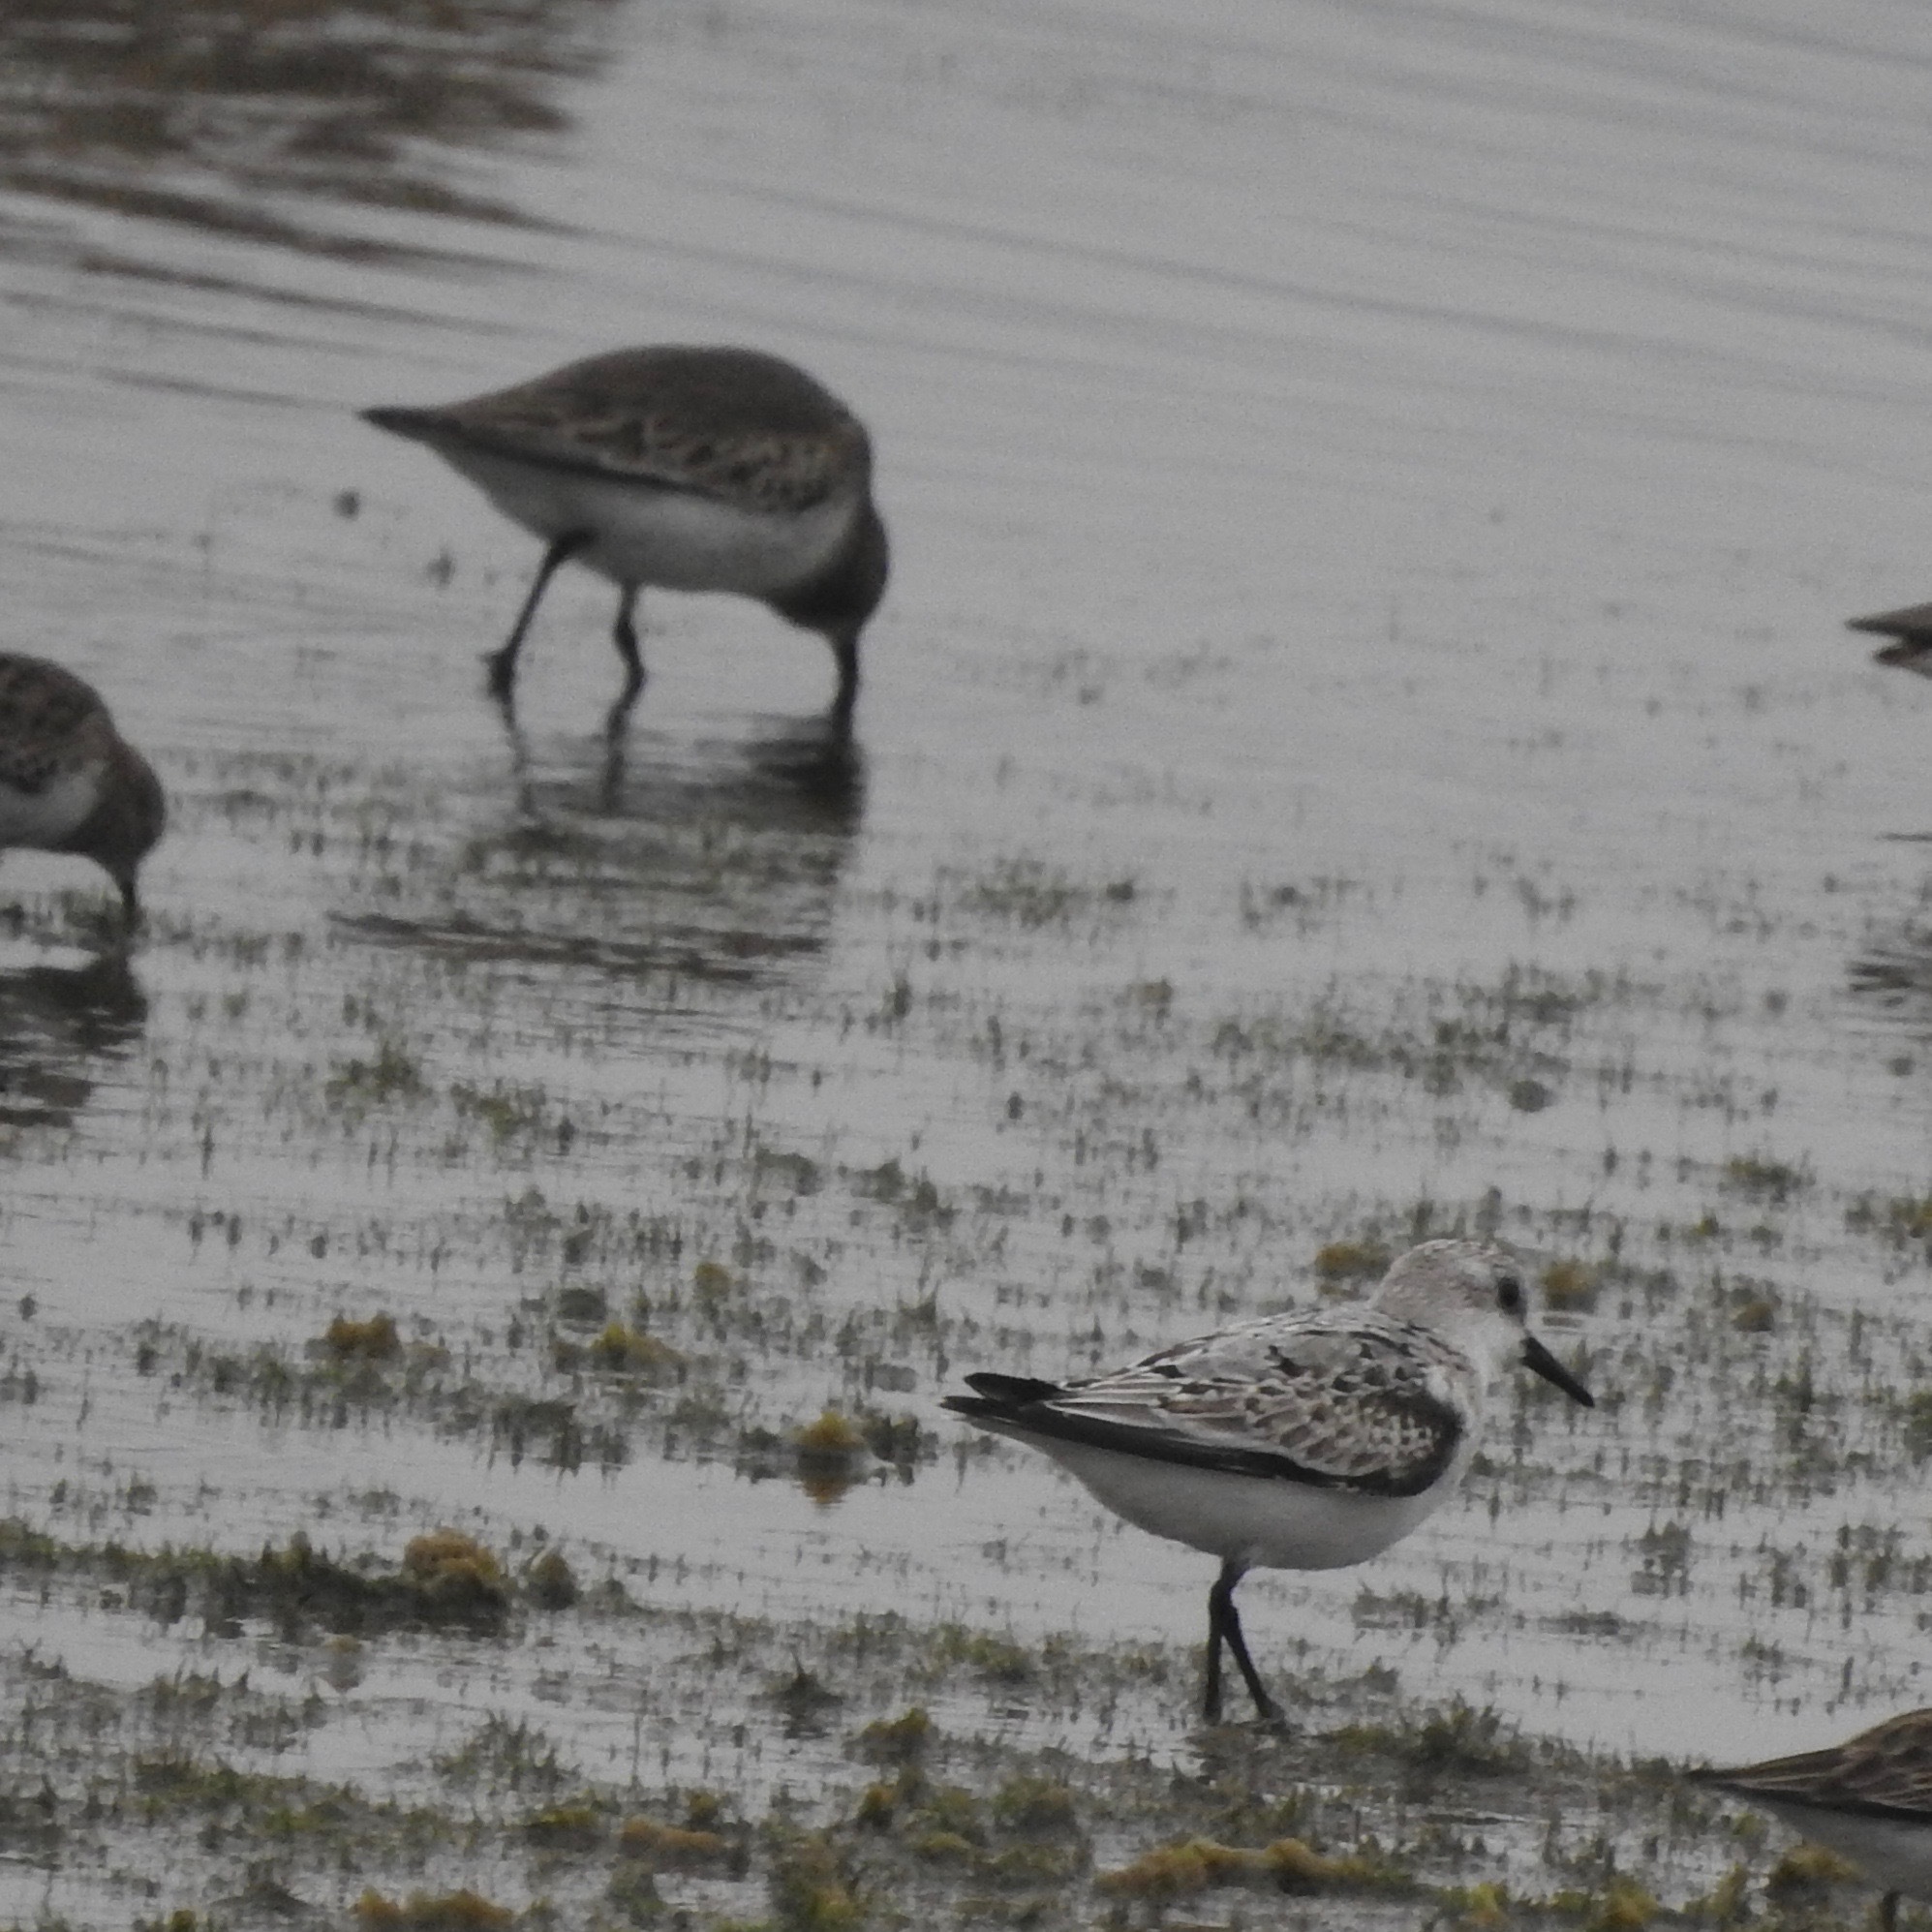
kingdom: Animalia
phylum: Chordata
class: Aves
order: Charadriiformes
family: Scolopacidae
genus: Calidris
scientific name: Calidris alba
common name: Sanderling
